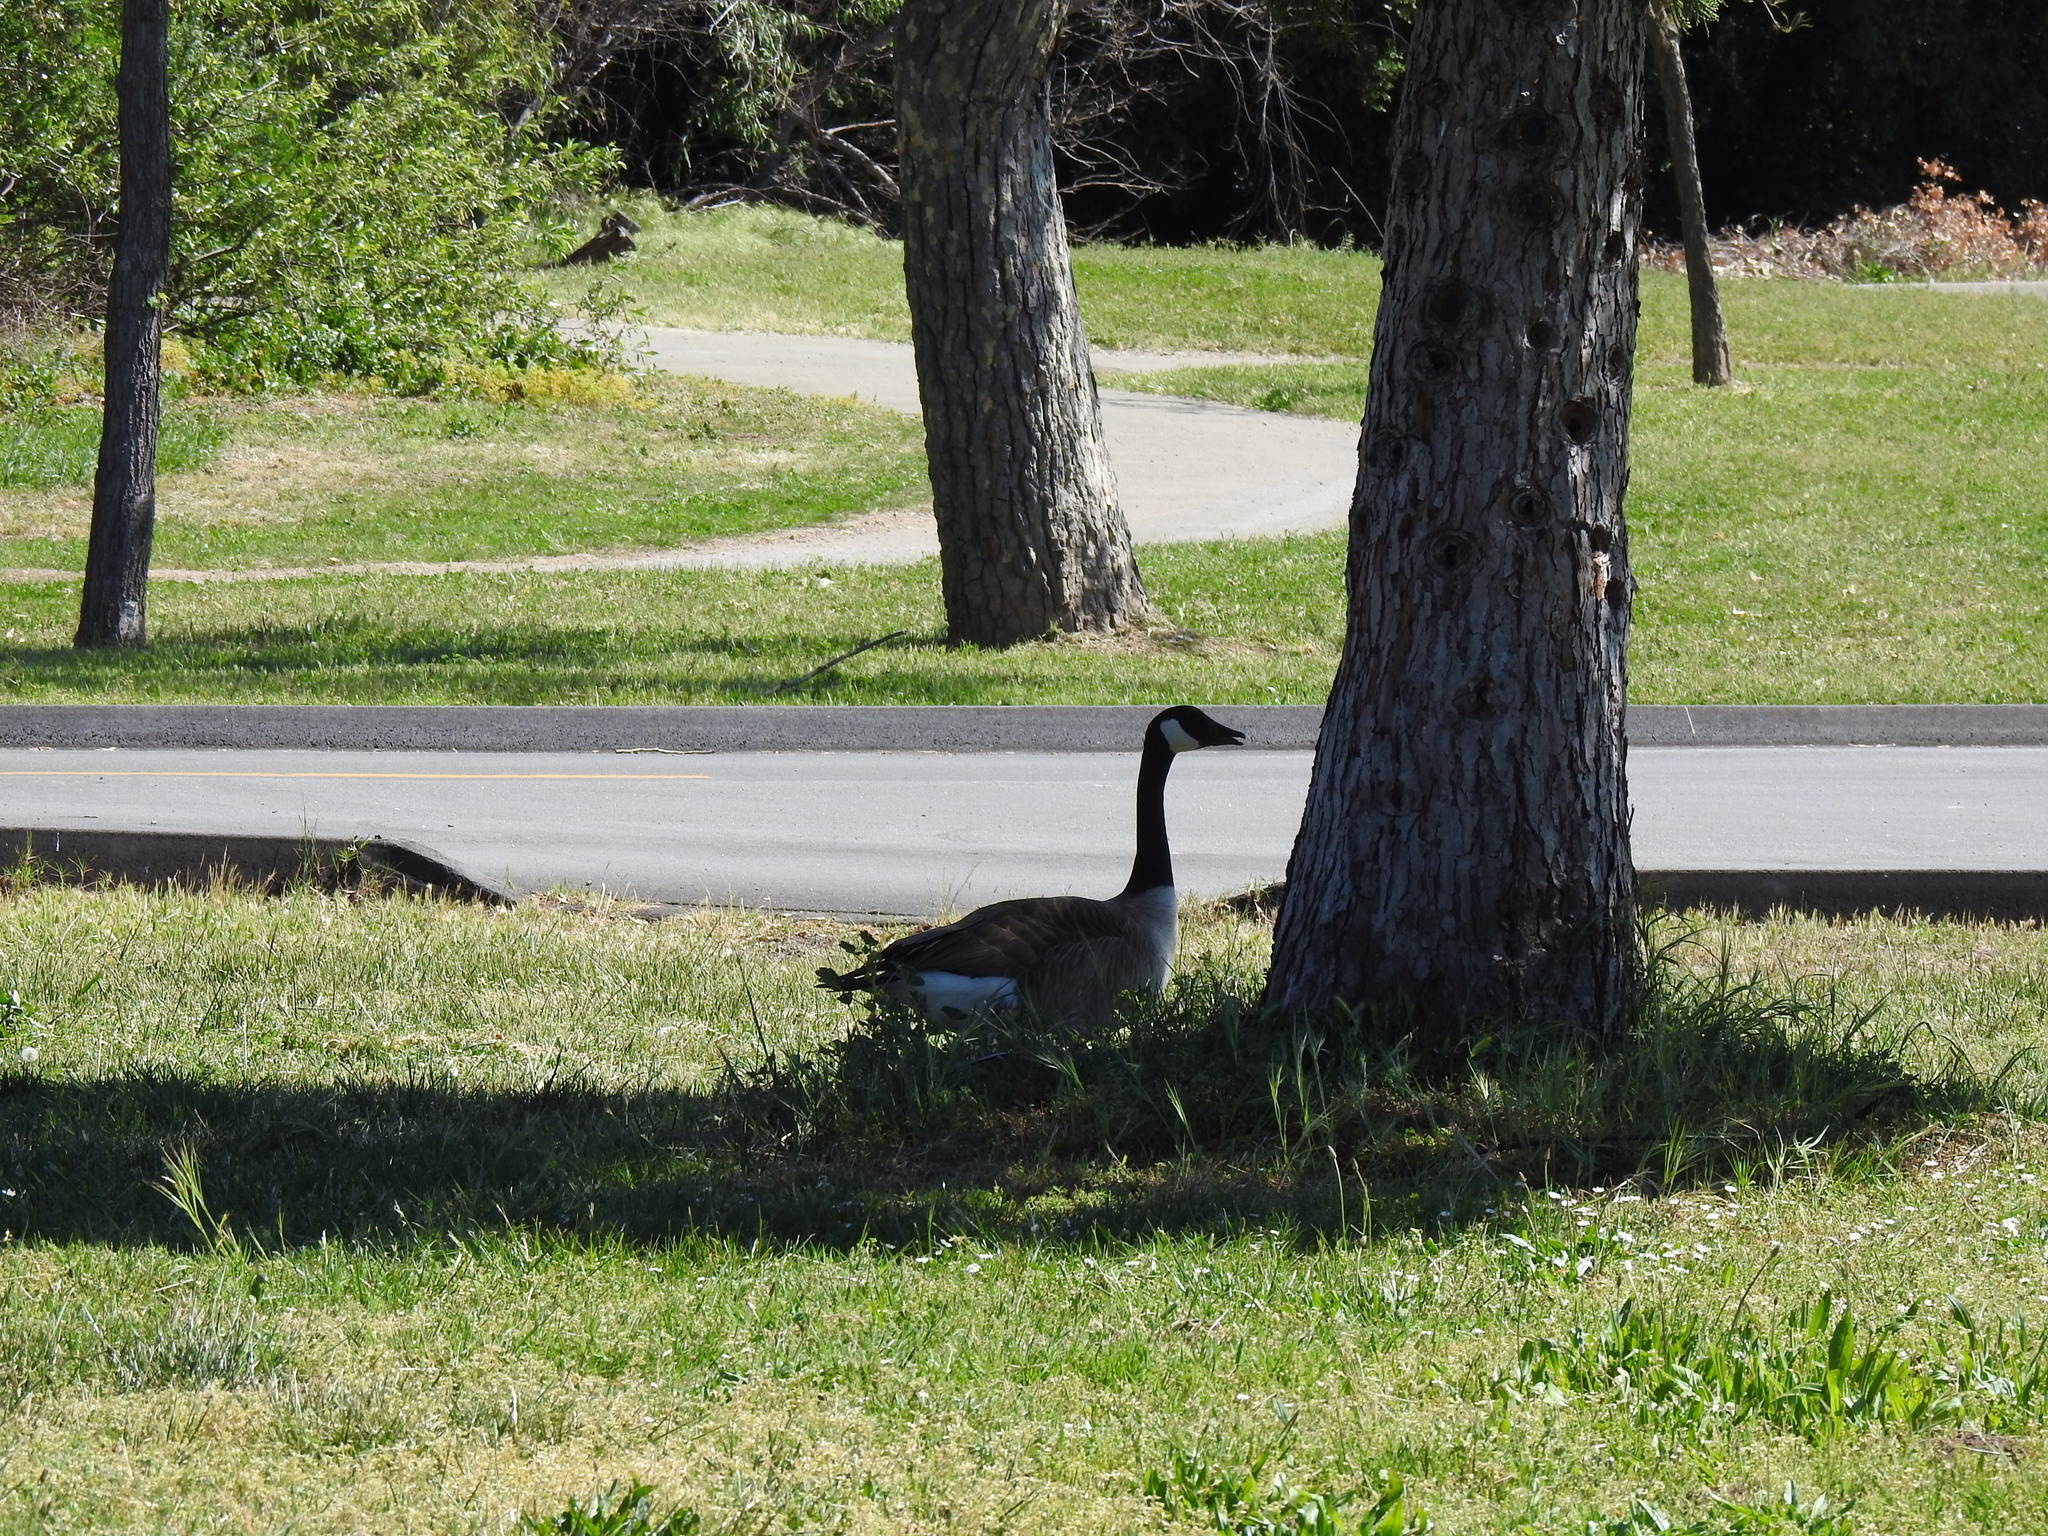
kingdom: Animalia
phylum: Chordata
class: Aves
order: Anseriformes
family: Anatidae
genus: Branta
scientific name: Branta canadensis
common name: Canada goose
